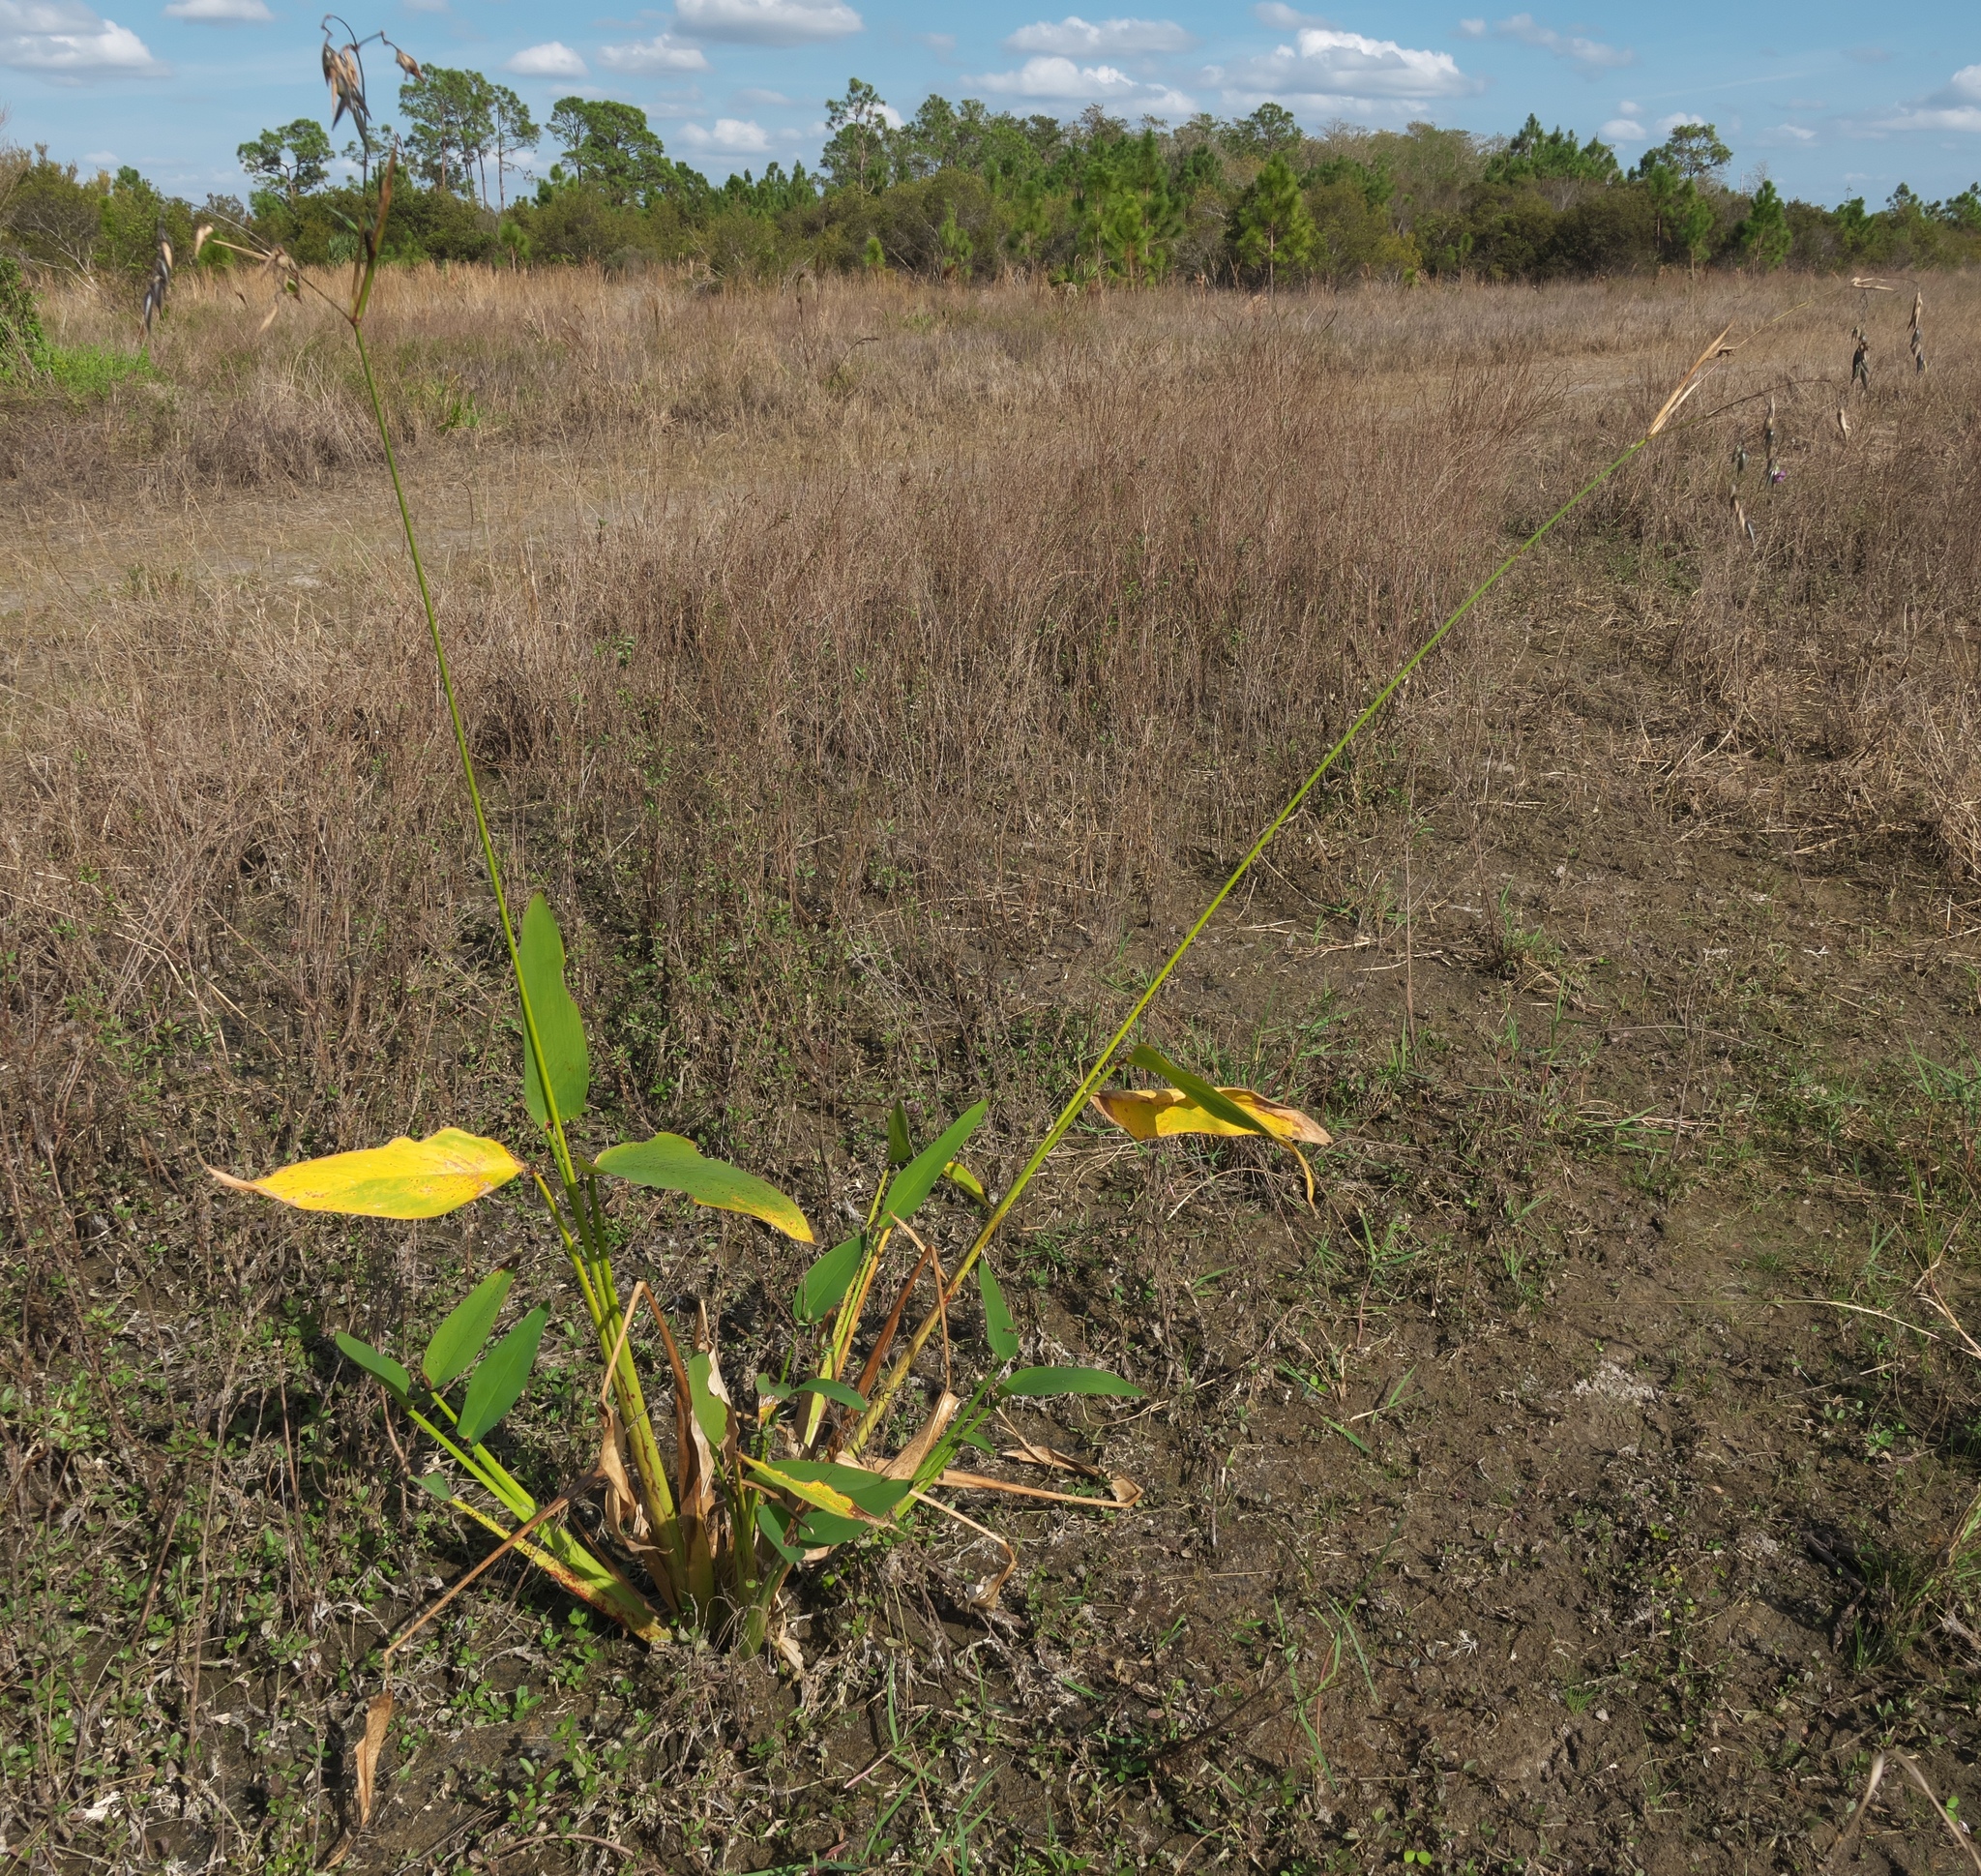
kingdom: Plantae
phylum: Tracheophyta
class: Liliopsida
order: Zingiberales
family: Marantaceae
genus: Thalia
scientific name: Thalia geniculata
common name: Arrowroot
